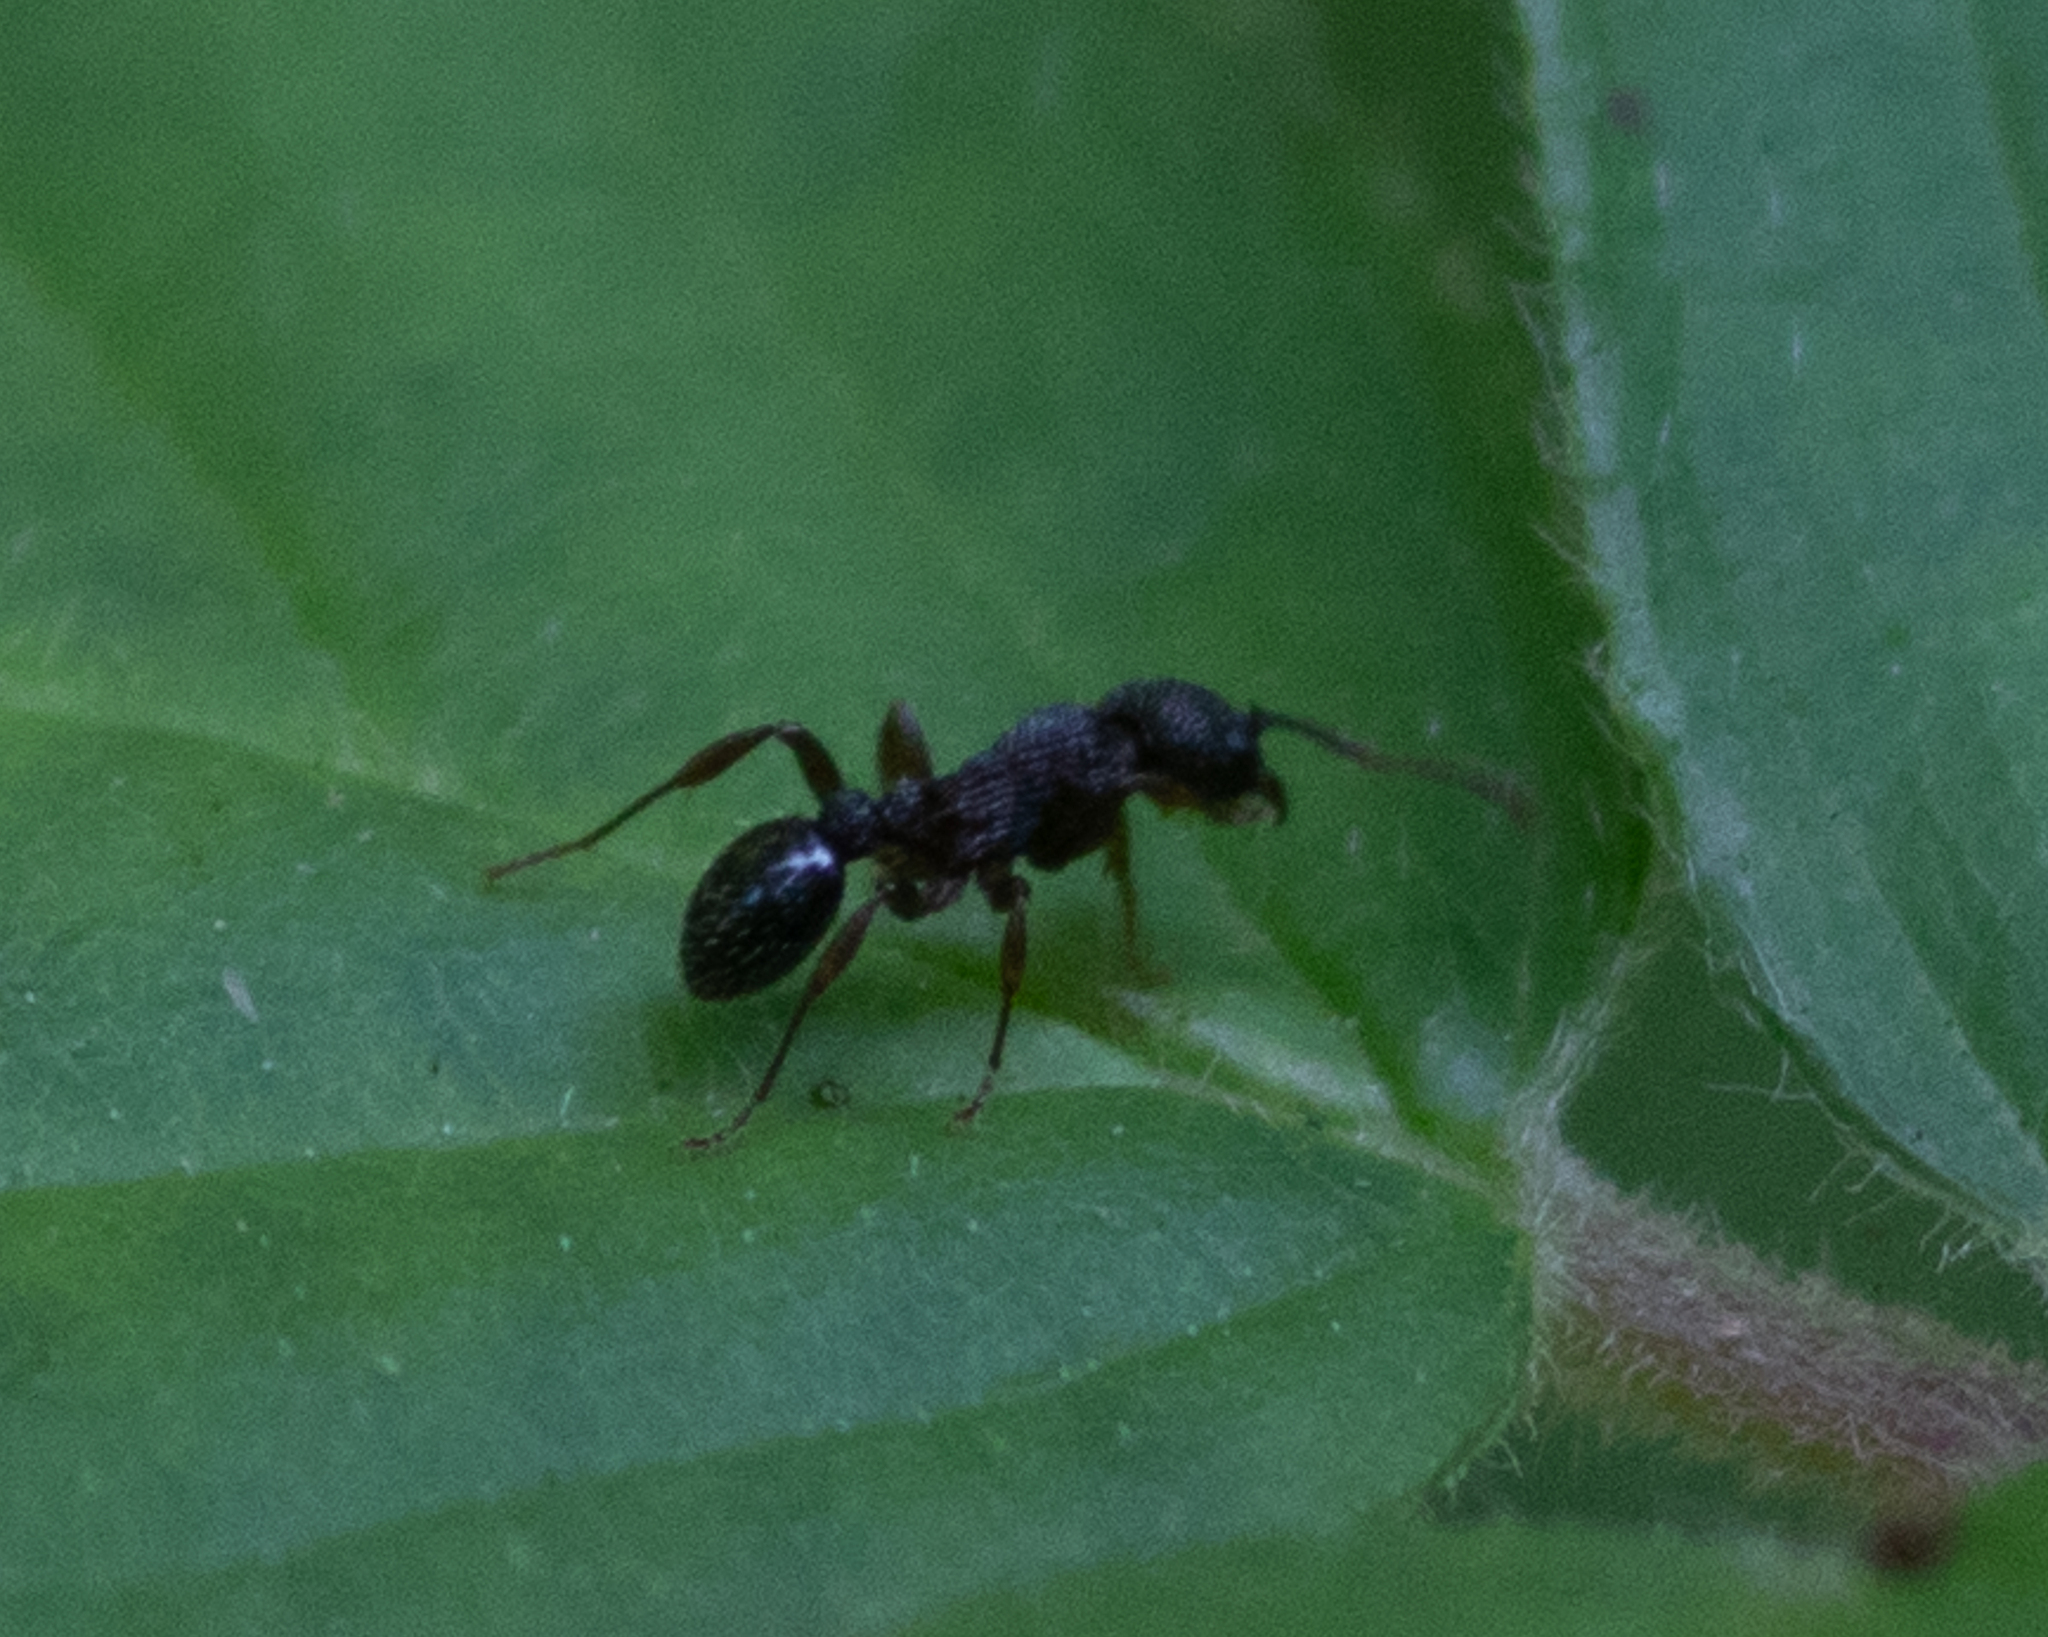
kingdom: Animalia
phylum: Arthropoda
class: Insecta
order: Hymenoptera
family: Formicidae
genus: Tetramorium
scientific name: Tetramorium immigrans
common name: Pavement ant
